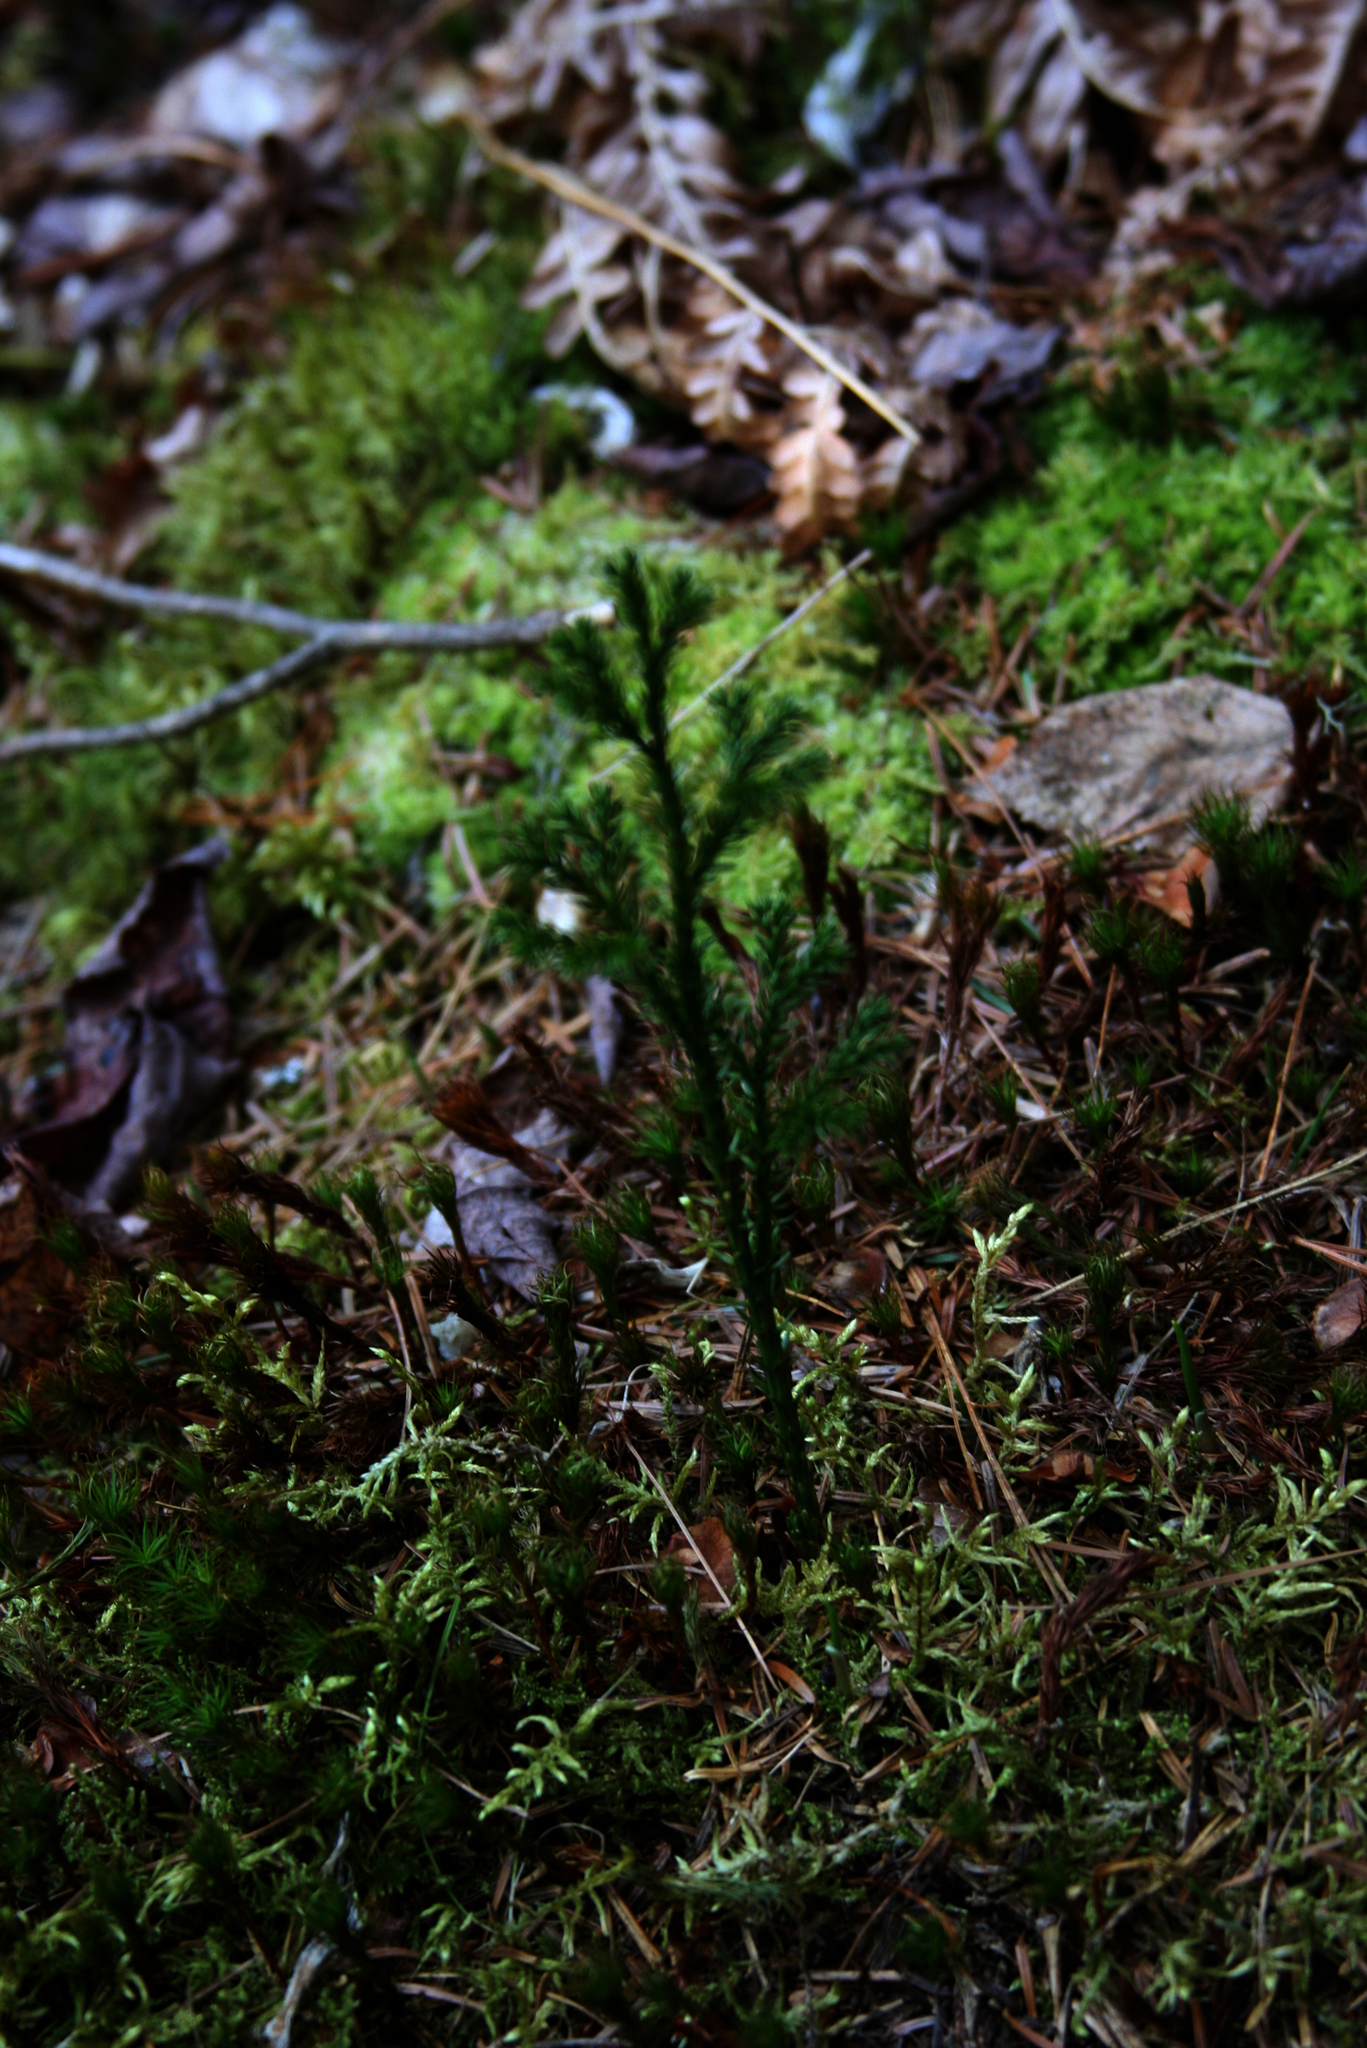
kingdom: Plantae
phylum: Tracheophyta
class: Lycopodiopsida
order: Lycopodiales
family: Lycopodiaceae
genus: Dendrolycopodium
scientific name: Dendrolycopodium dendroideum
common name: Northern tree-clubmoss
